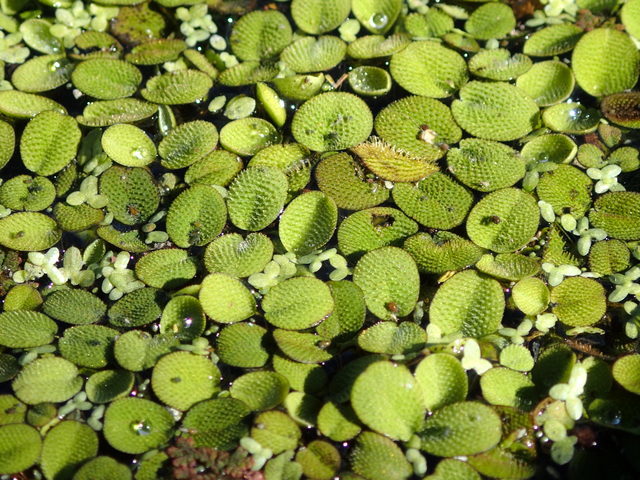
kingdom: Plantae
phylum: Tracheophyta
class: Polypodiopsida
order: Salviniales
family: Salviniaceae
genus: Salvinia
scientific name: Salvinia minima
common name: Water spangles
